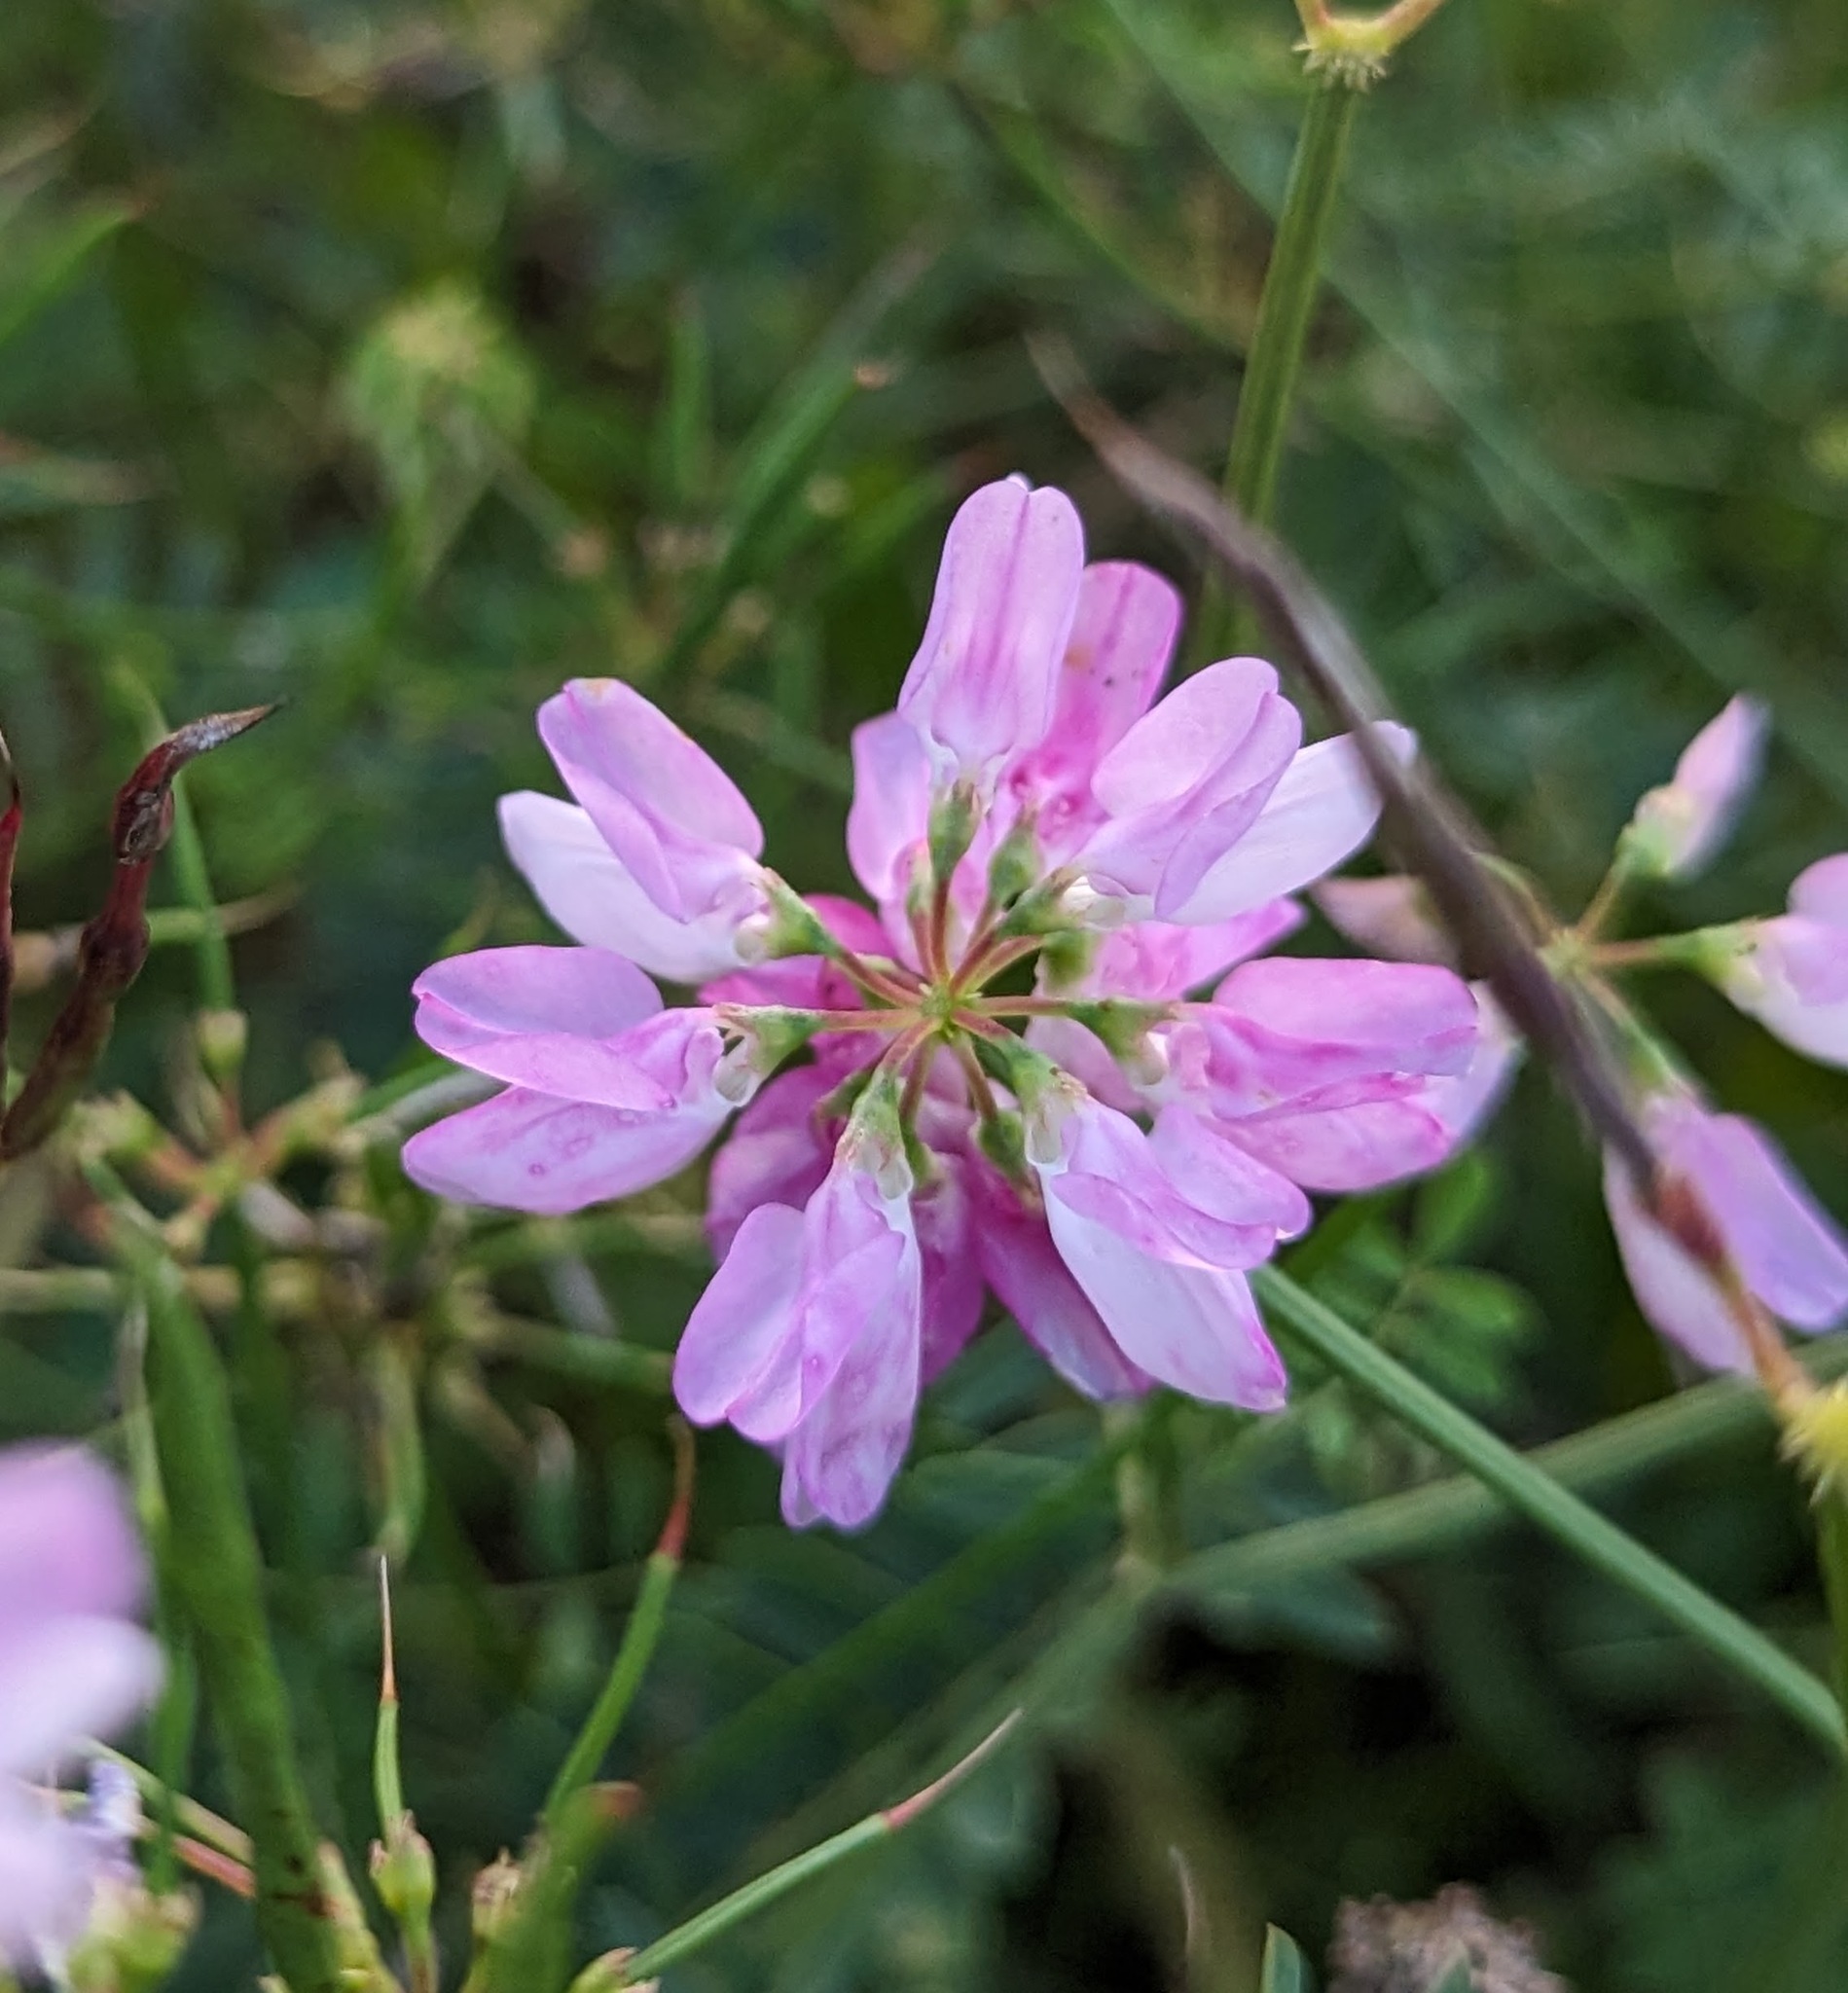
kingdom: Plantae
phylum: Tracheophyta
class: Magnoliopsida
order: Fabales
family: Fabaceae
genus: Coronilla
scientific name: Coronilla varia
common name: Crownvetch
